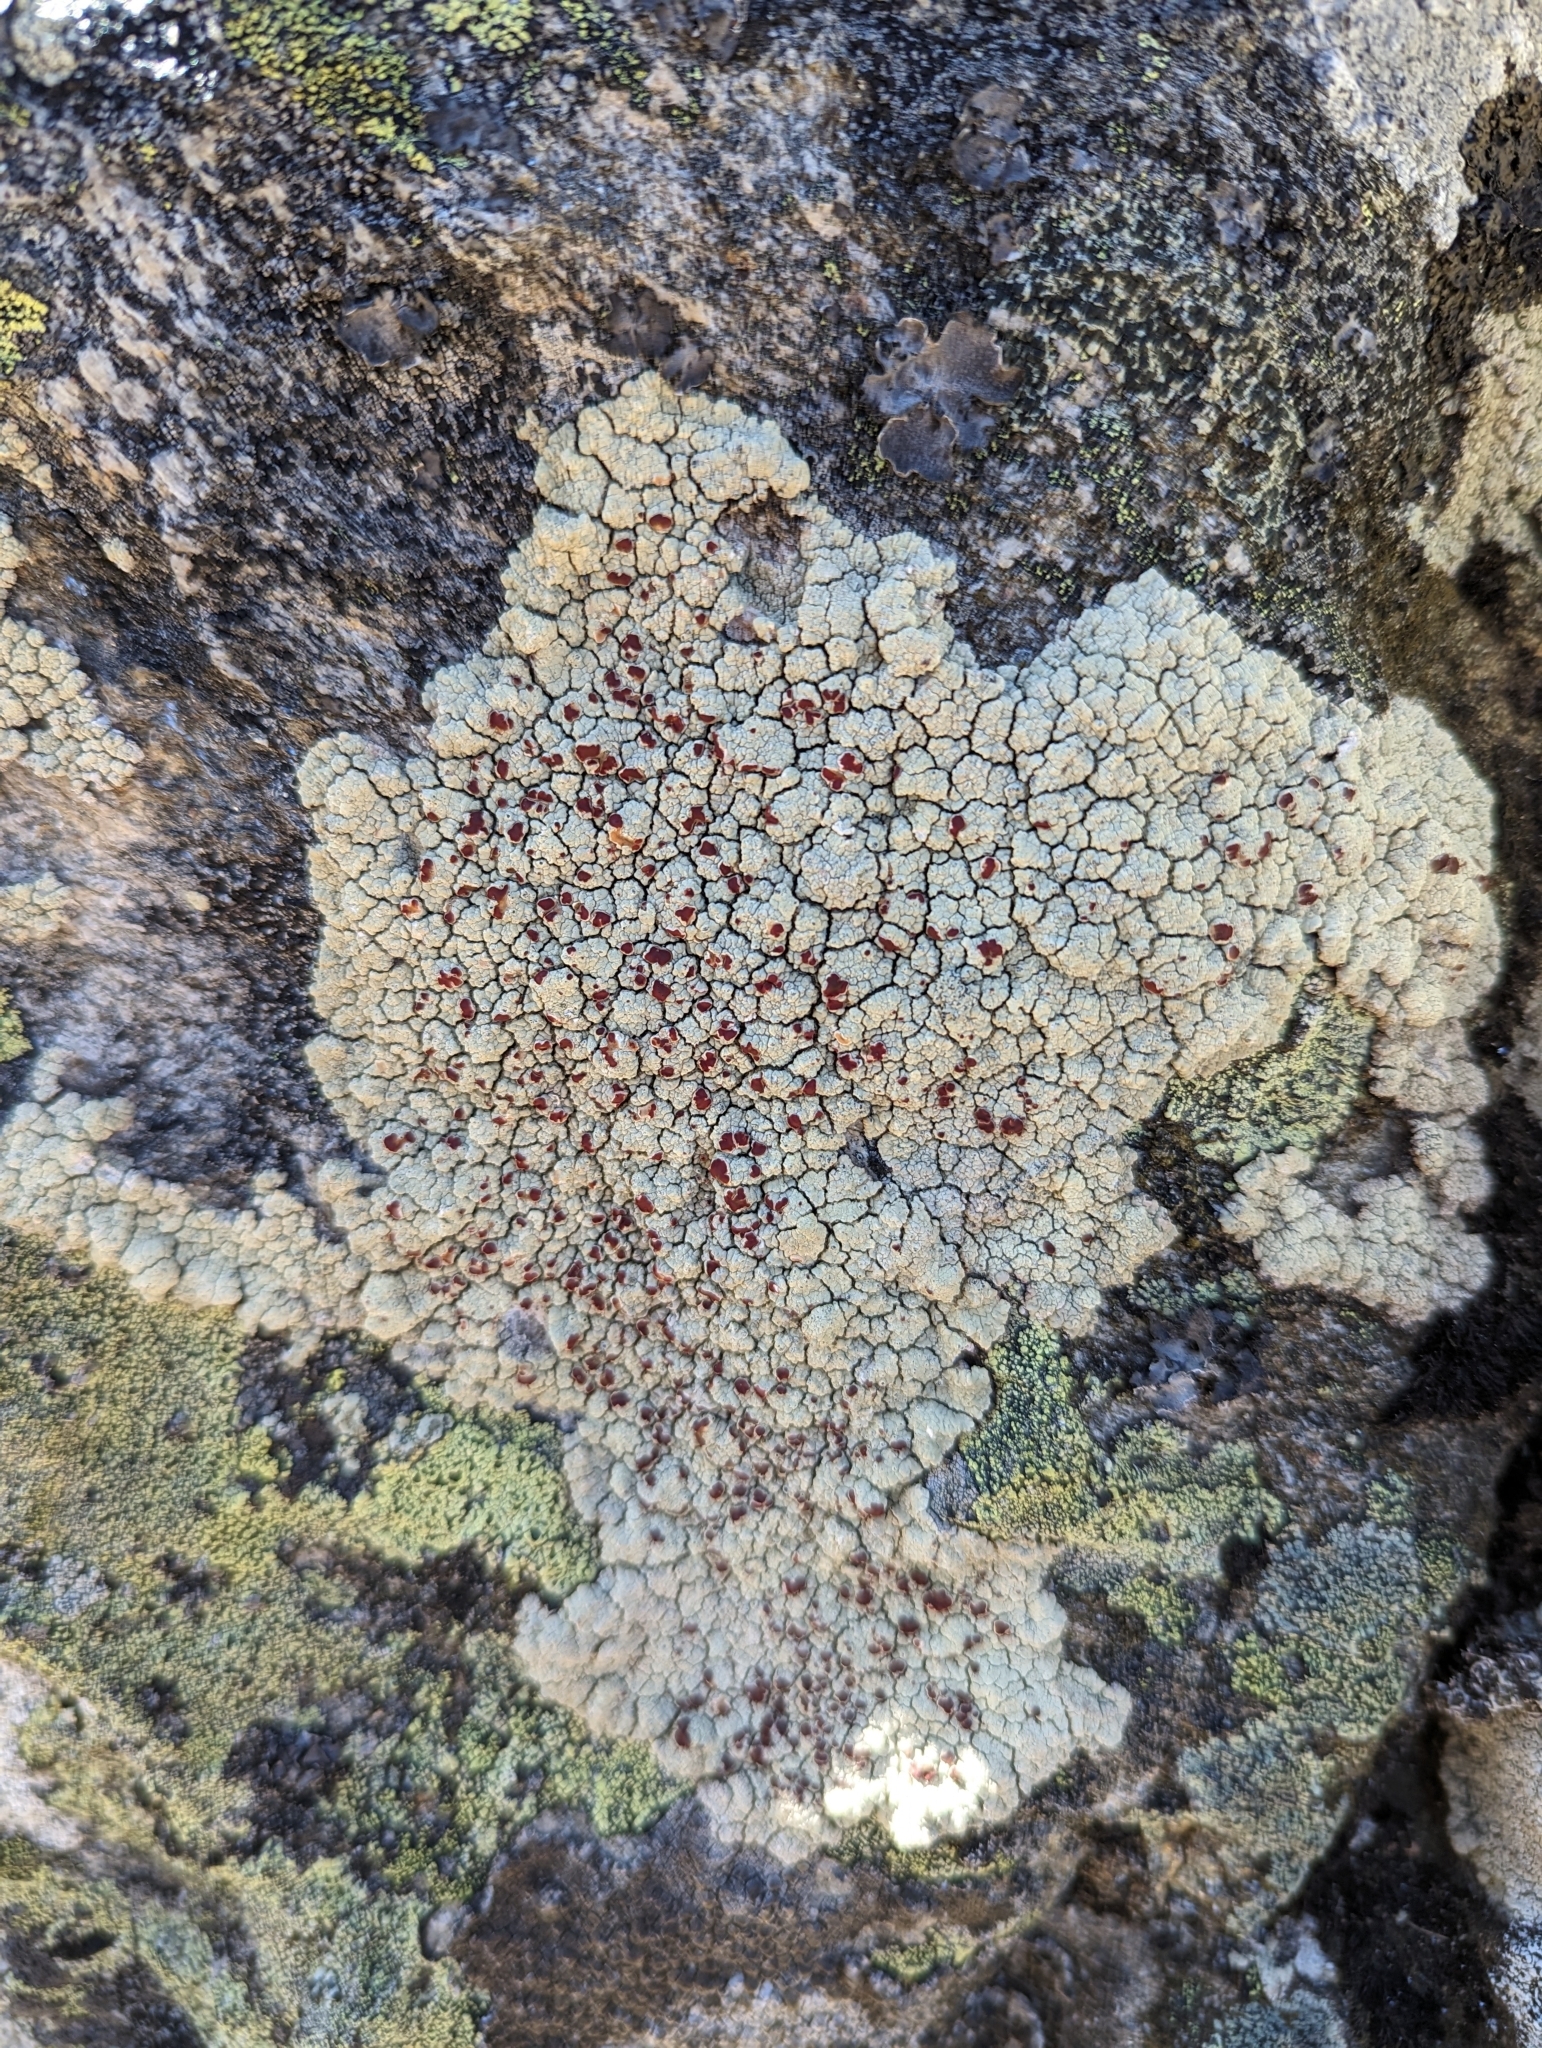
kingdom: Fungi
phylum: Ascomycota
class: Lecanoromycetes
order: Umbilicariales
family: Ophioparmaceae
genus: Ophioparma
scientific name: Ophioparma ventosa
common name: Blood-spot
